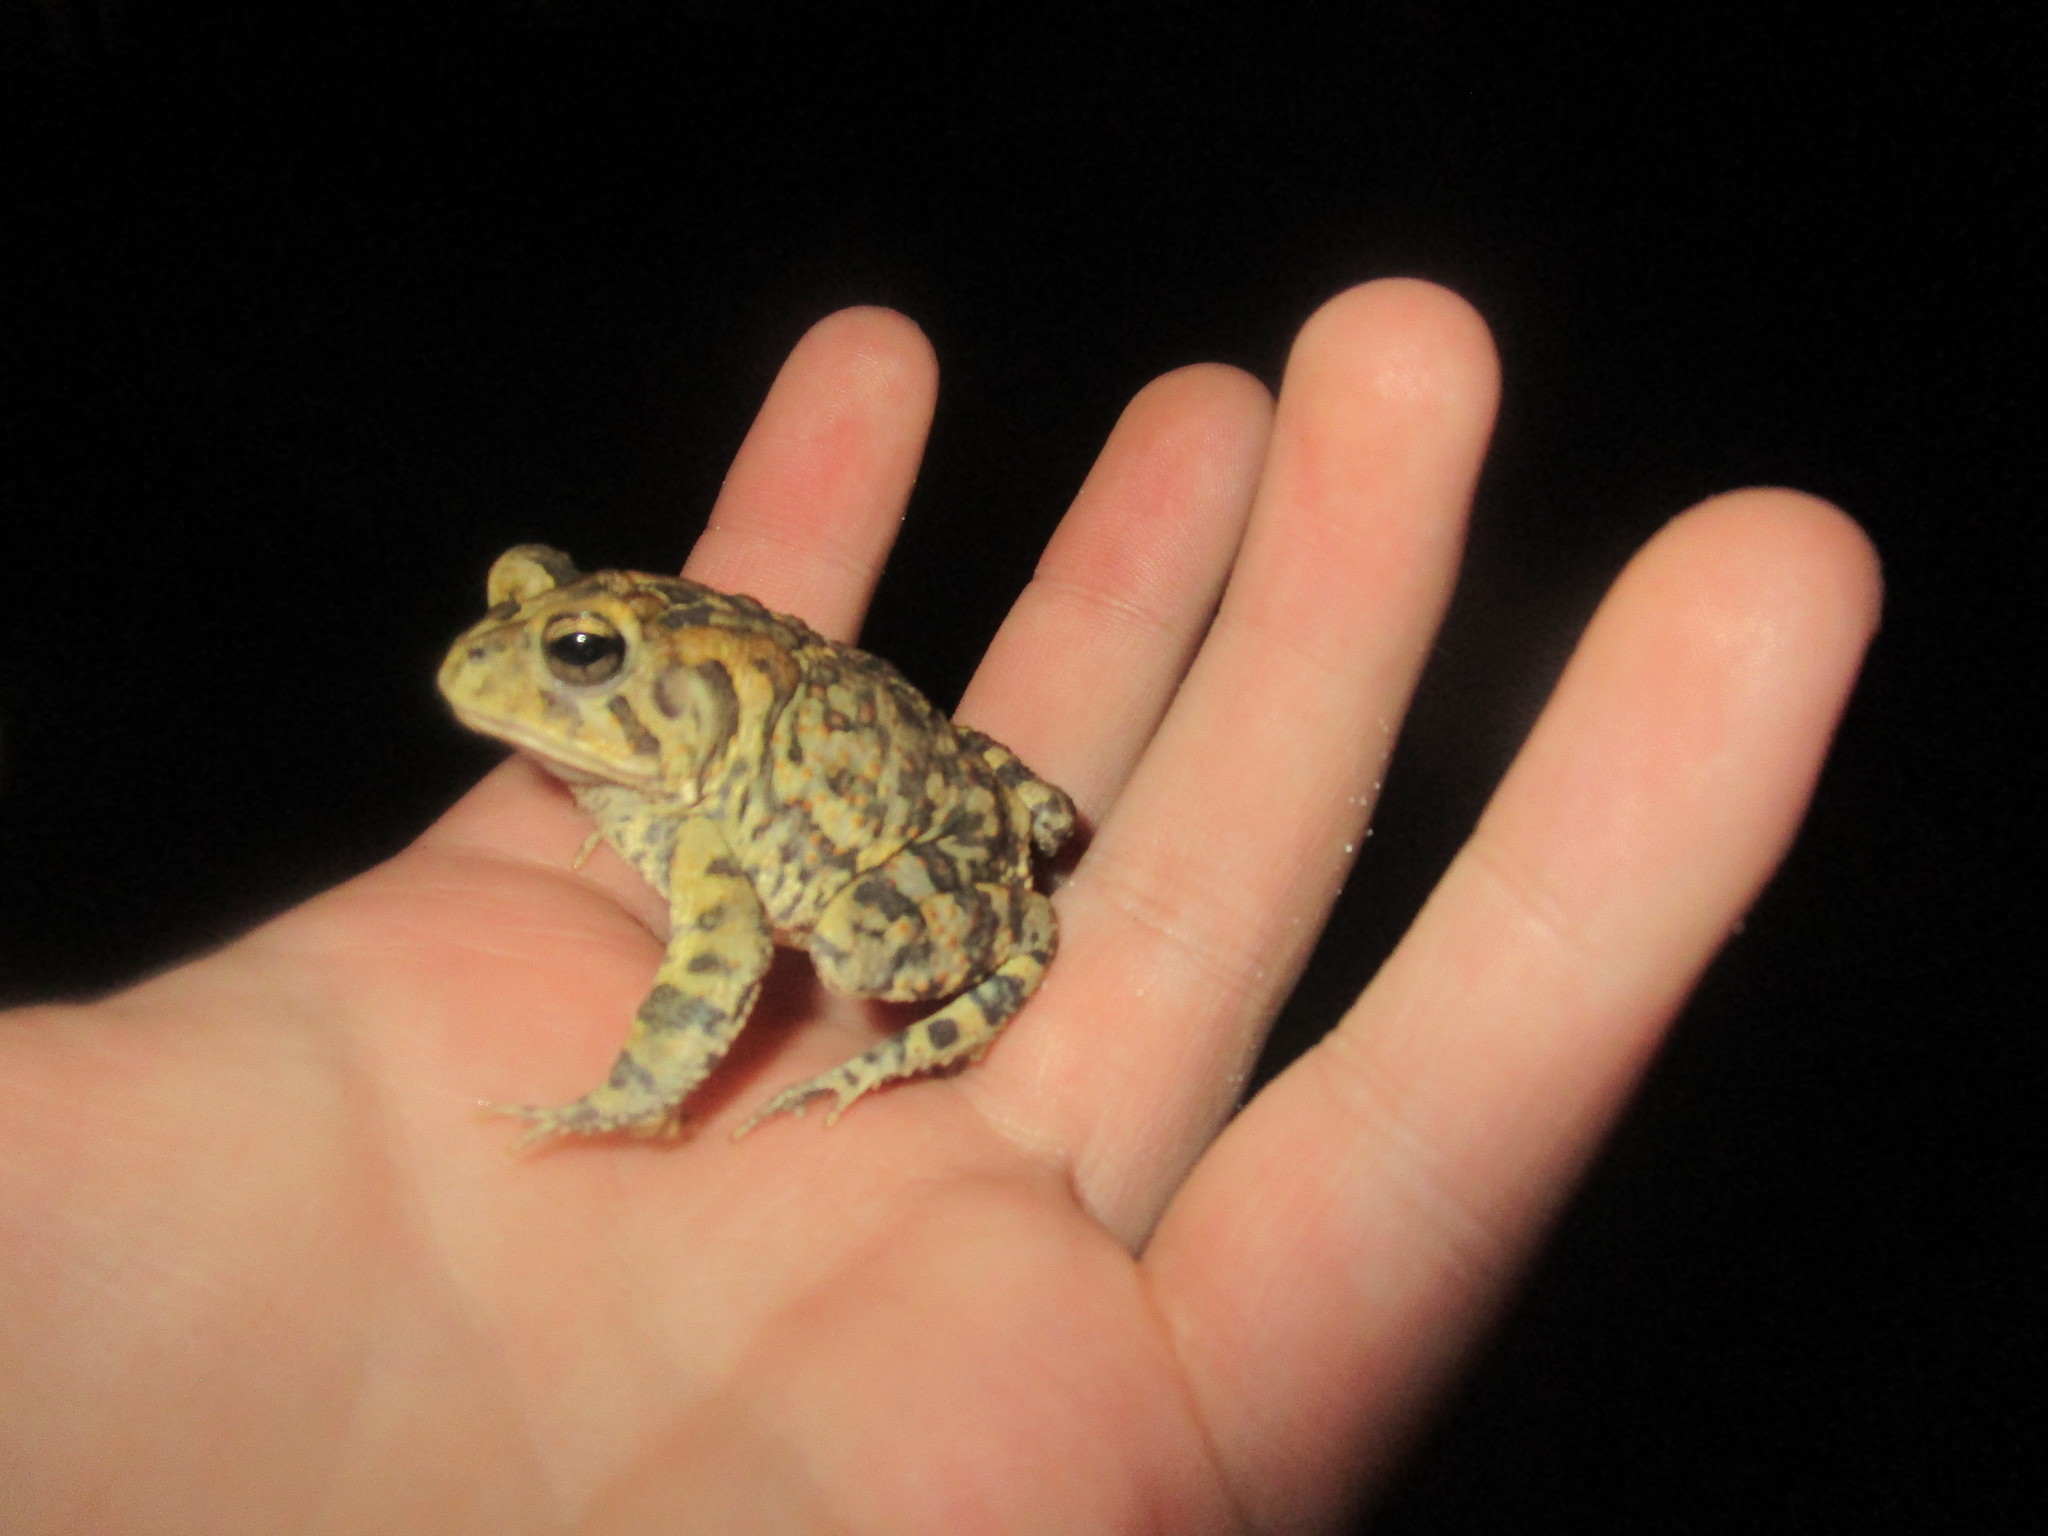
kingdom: Animalia
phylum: Chordata
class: Amphibia
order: Anura
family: Bufonidae
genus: Anaxyrus
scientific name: Anaxyrus terrestris
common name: Southern toad
